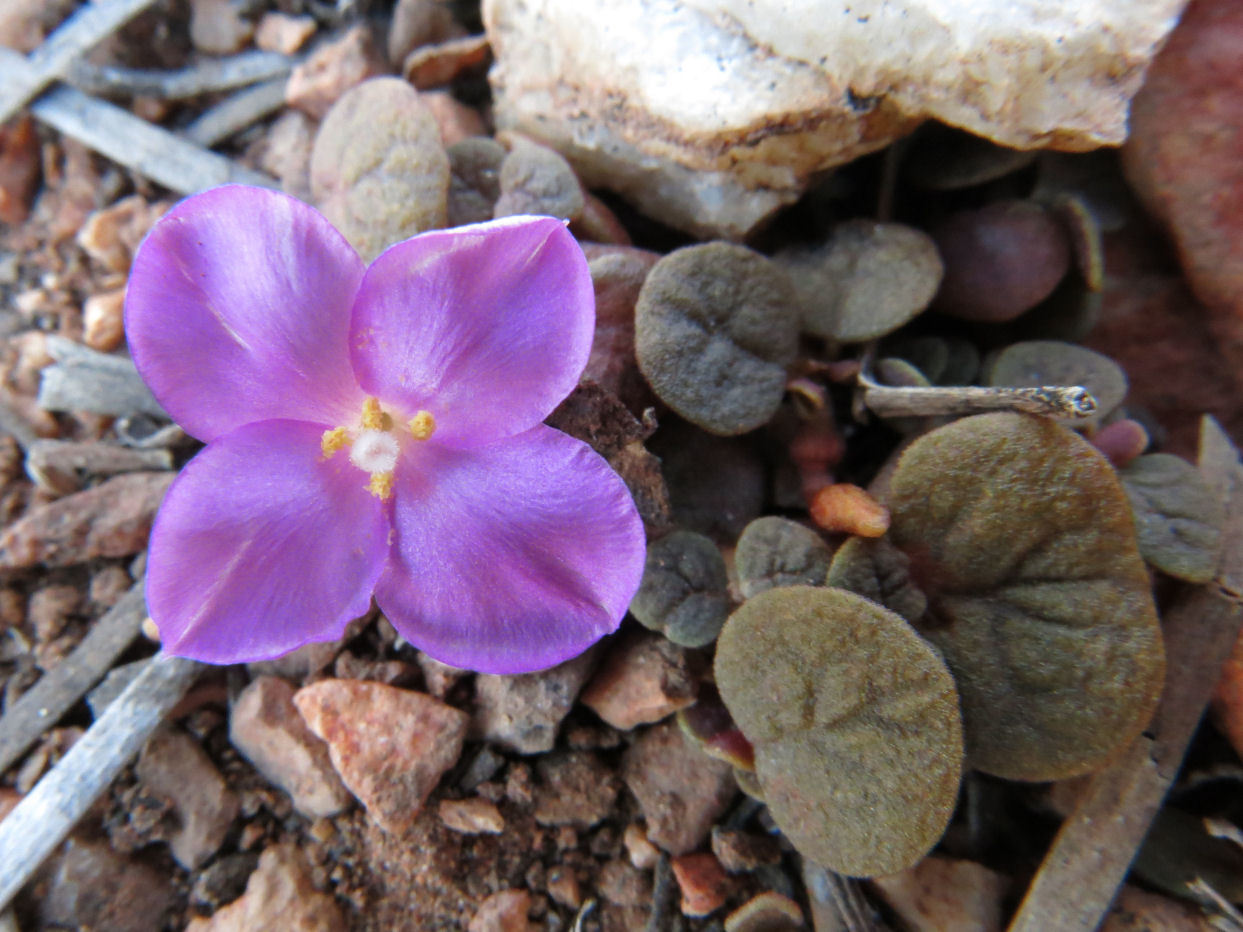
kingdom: Plantae
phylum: Tracheophyta
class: Magnoliopsida
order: Caryophyllales
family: Portulacaceae
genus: Portulaca
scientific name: Portulaca filsonii
